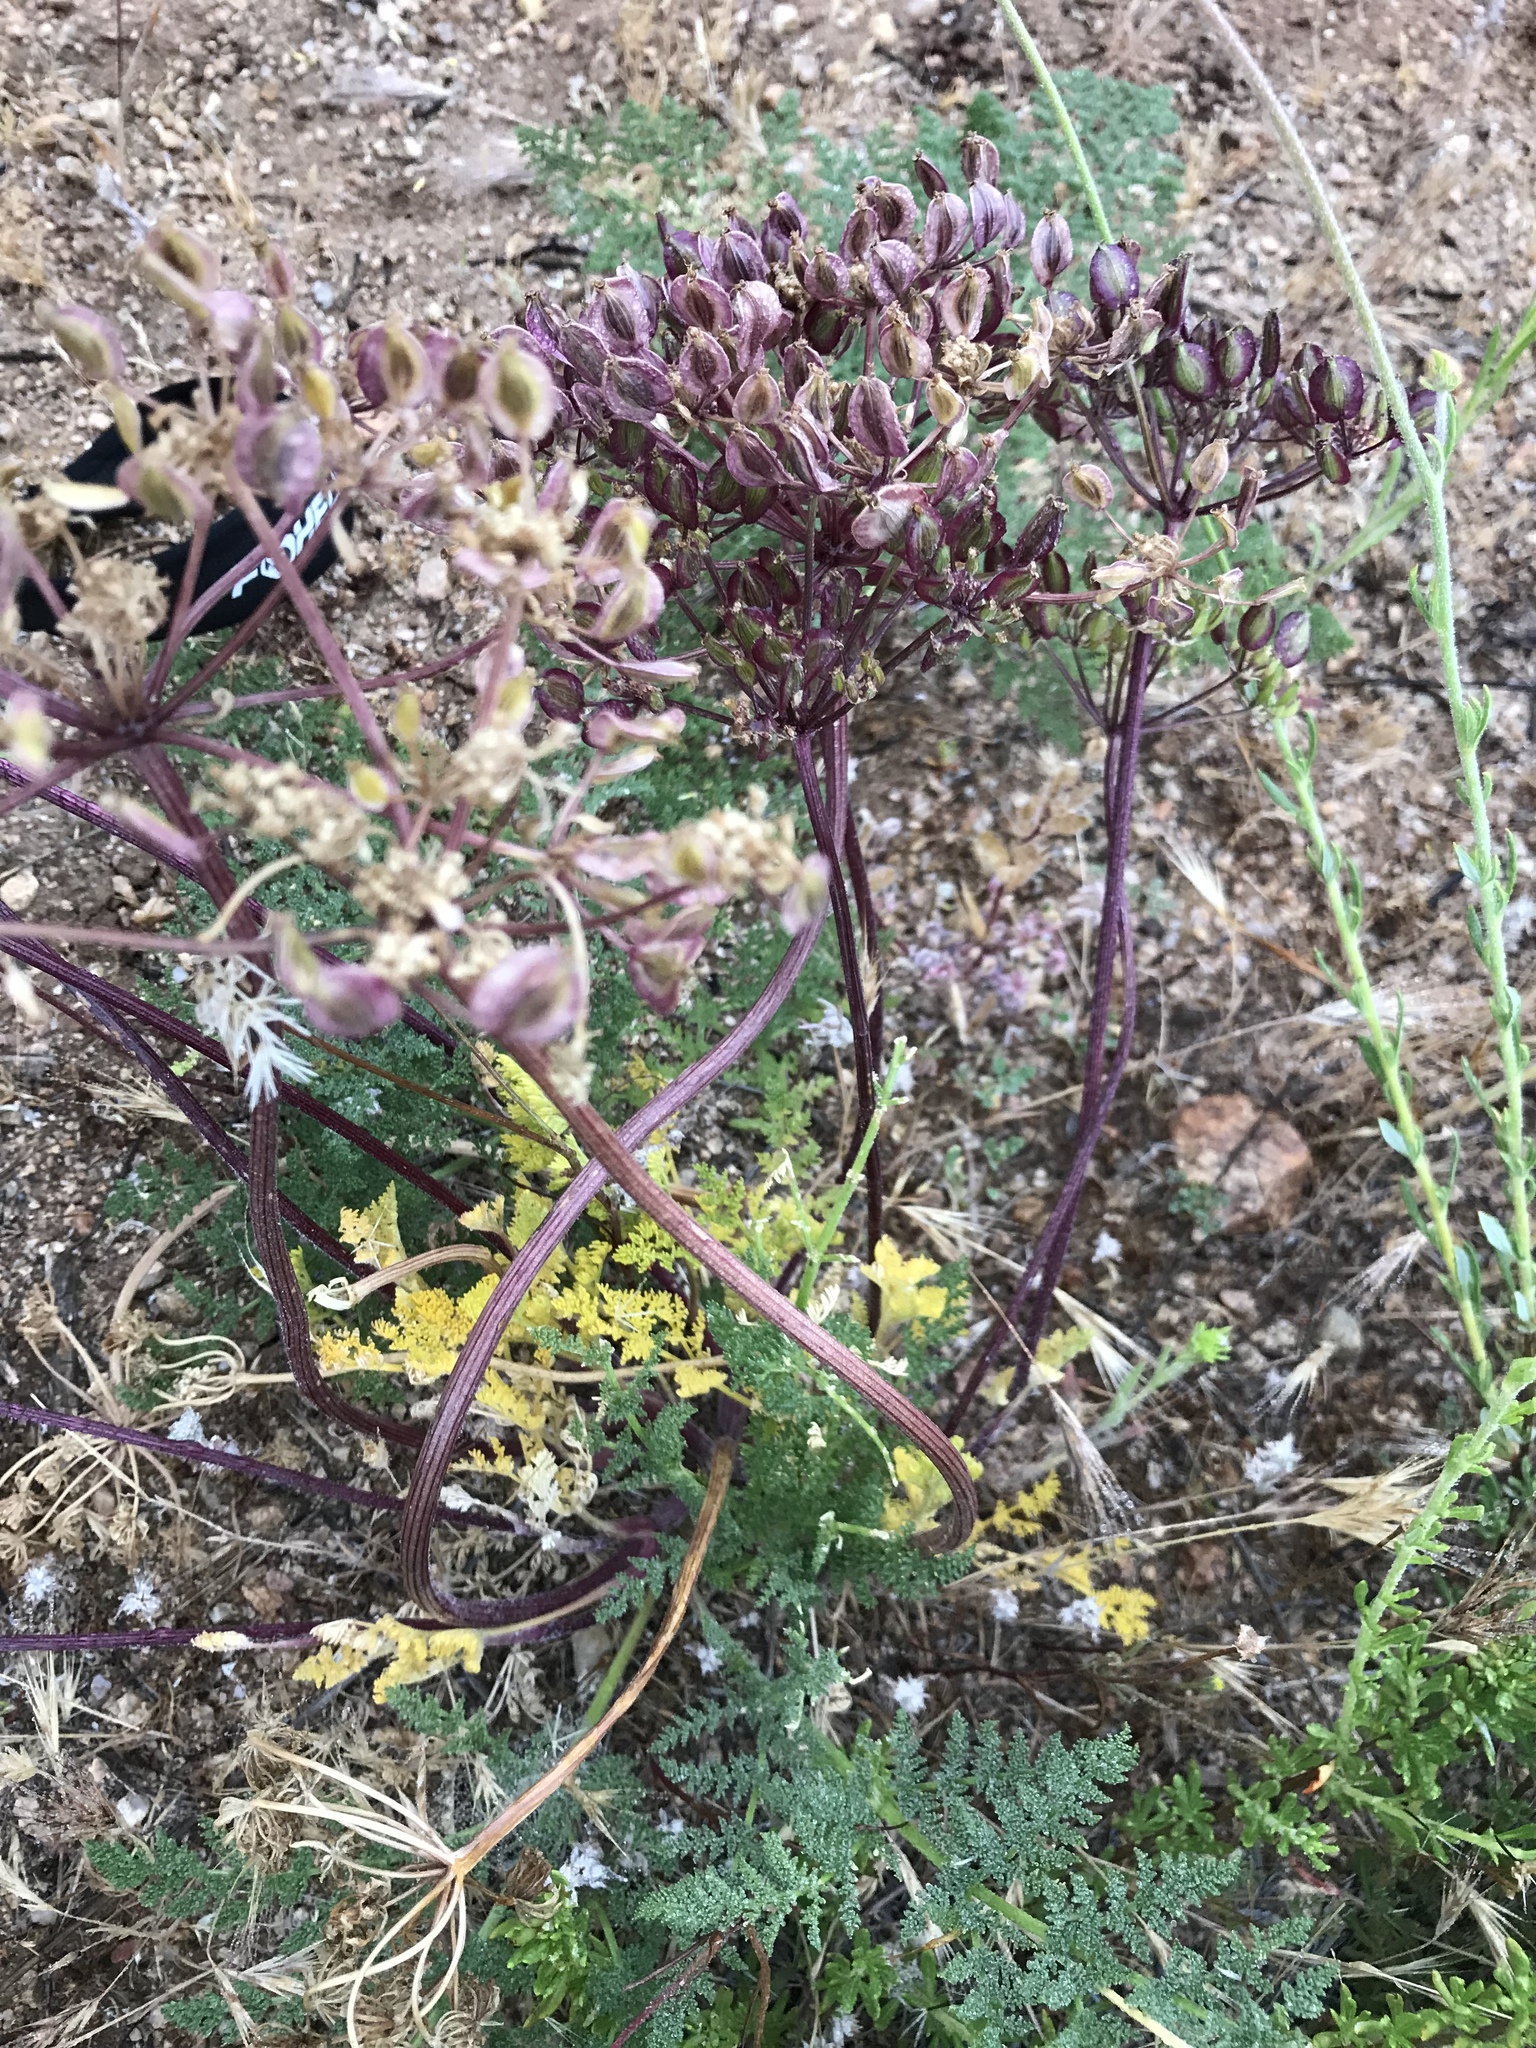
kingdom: Plantae
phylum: Tracheophyta
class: Magnoliopsida
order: Apiales
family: Apiaceae
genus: Lomatium
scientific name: Lomatium dasycarpum
